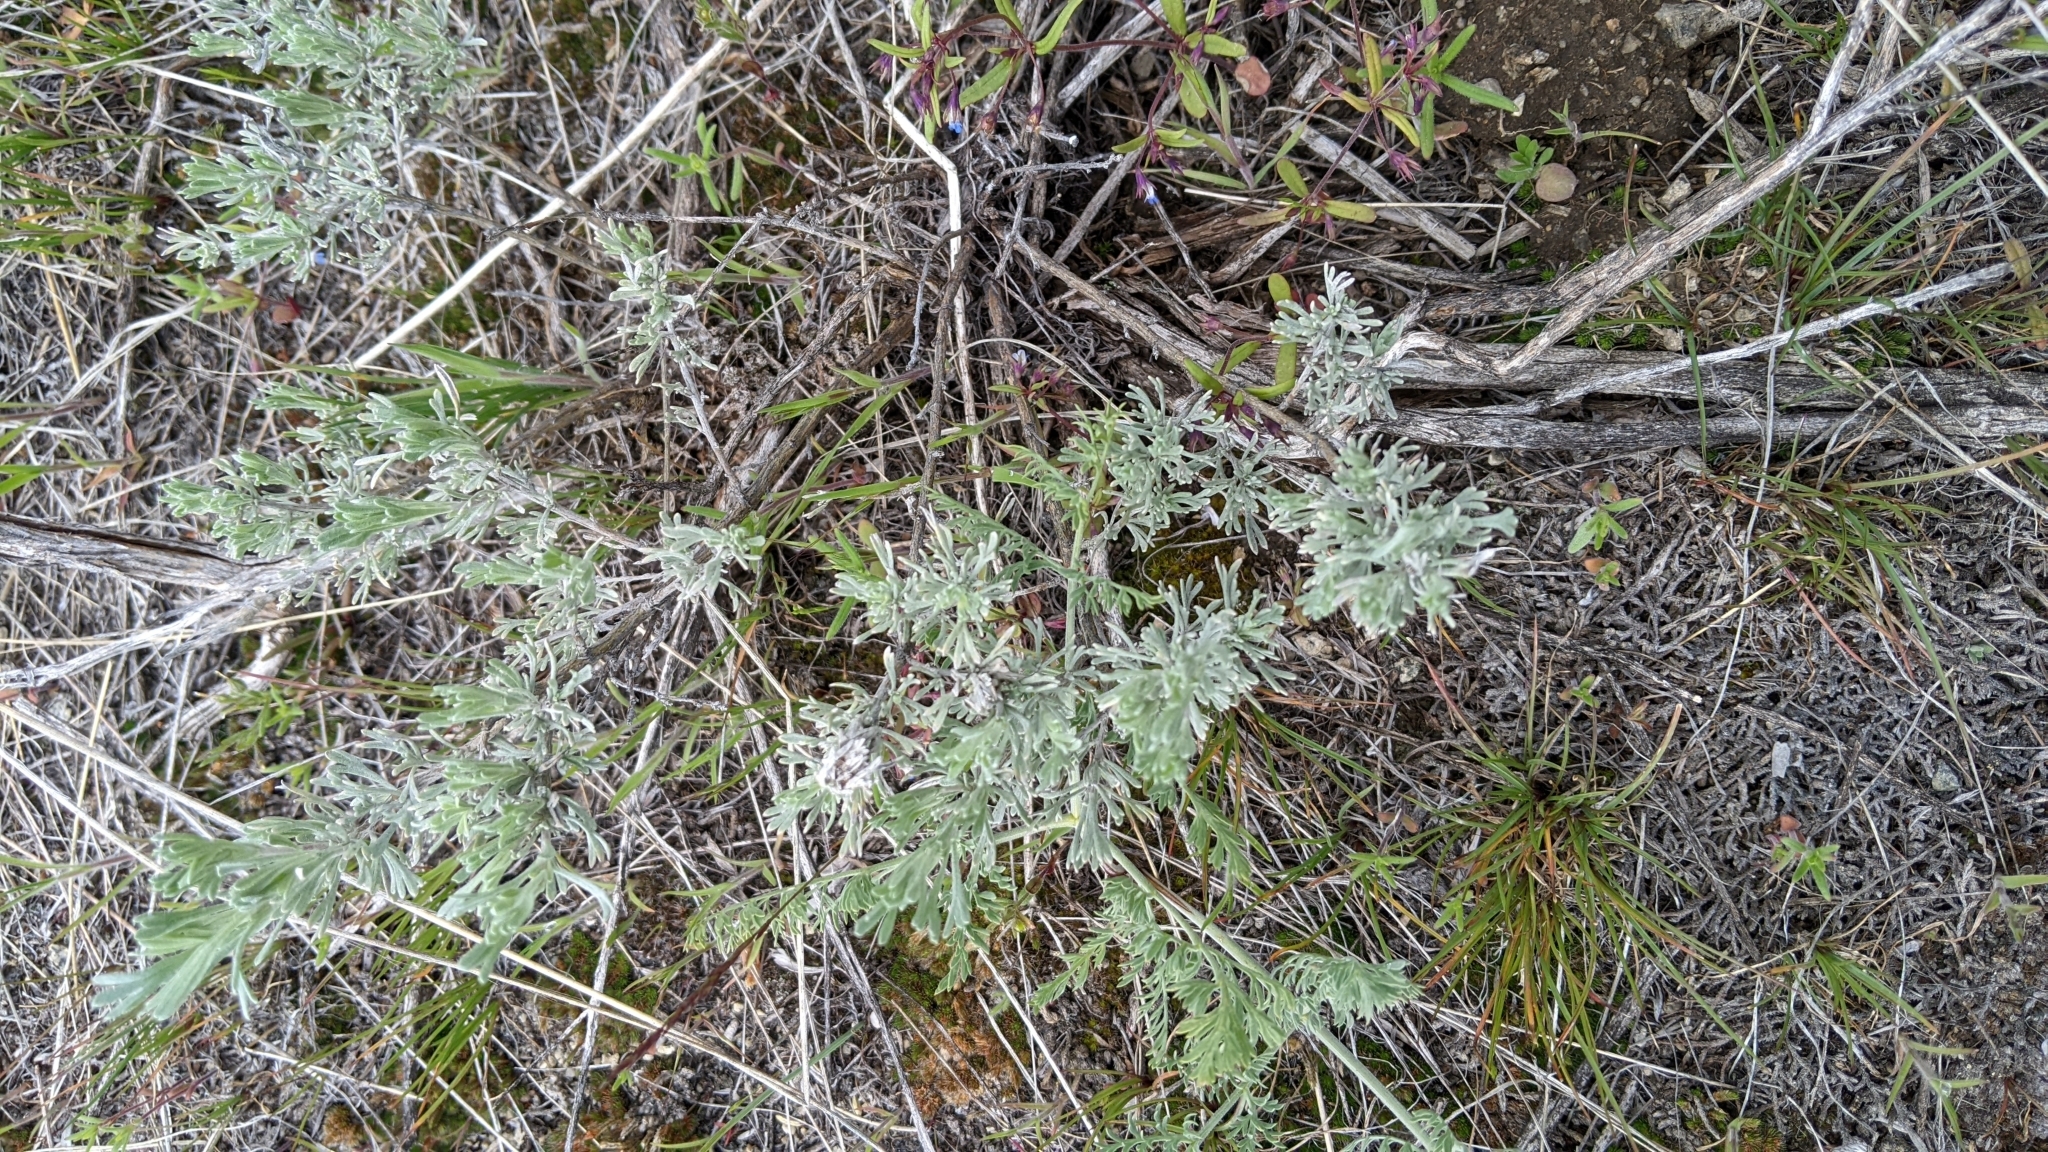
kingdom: Plantae
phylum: Tracheophyta
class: Magnoliopsida
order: Asterales
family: Asteraceae
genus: Artemisia
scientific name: Artemisia tridentata
